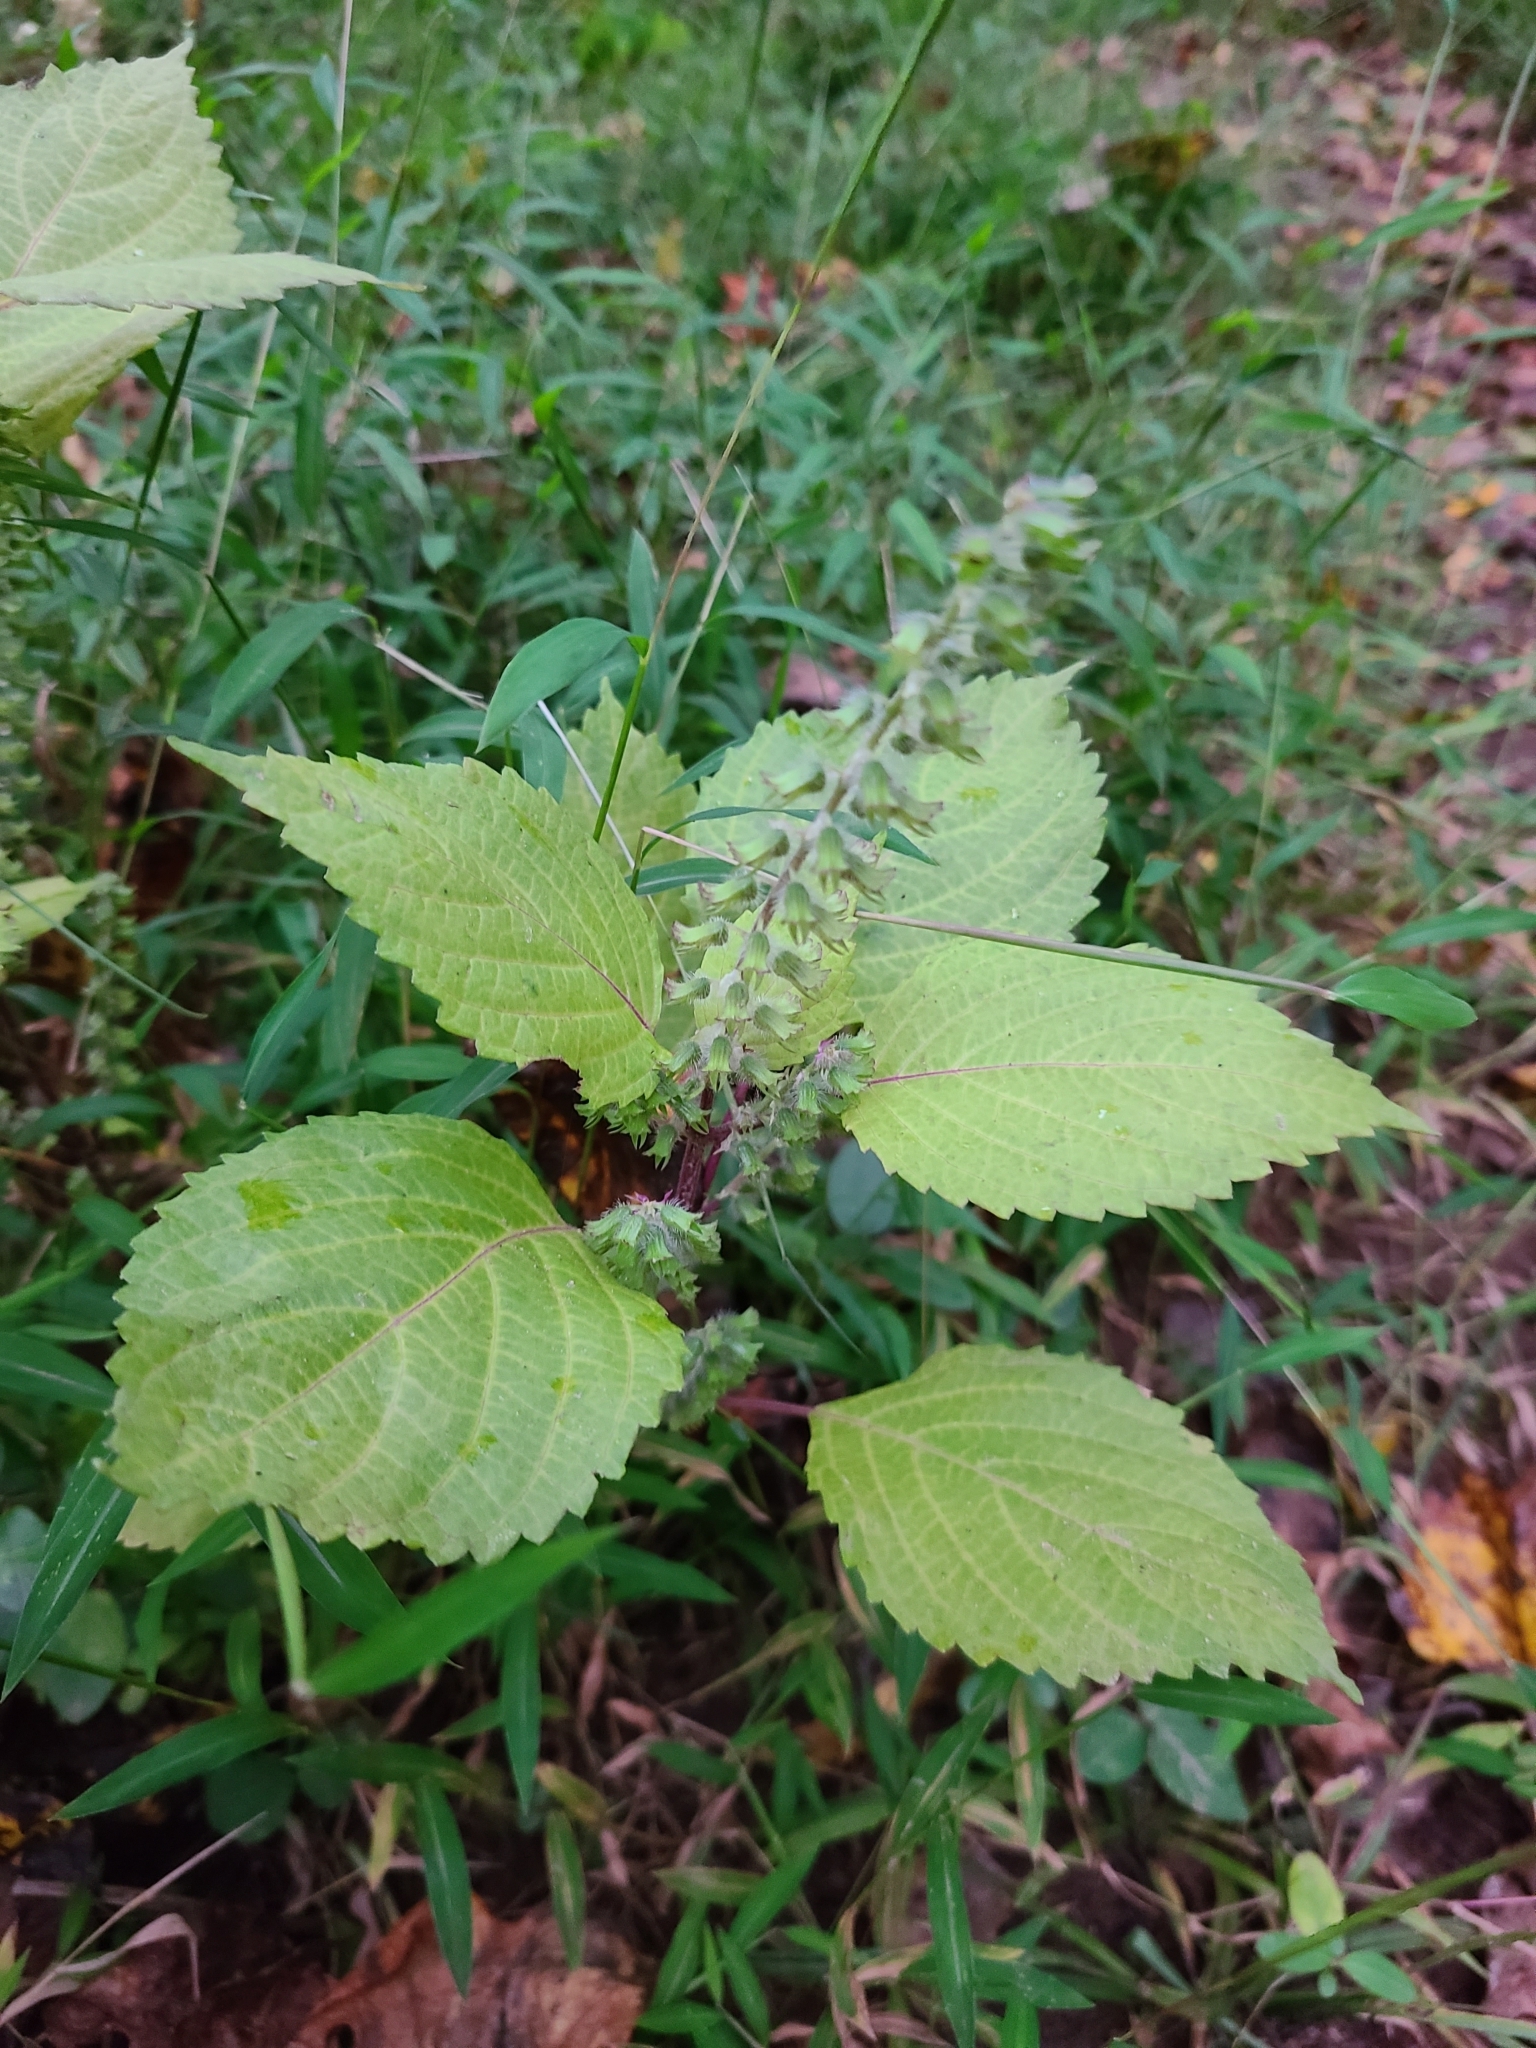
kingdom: Plantae
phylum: Tracheophyta
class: Magnoliopsida
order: Lamiales
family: Lamiaceae
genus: Perilla
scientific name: Perilla frutescens
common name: Perilla
